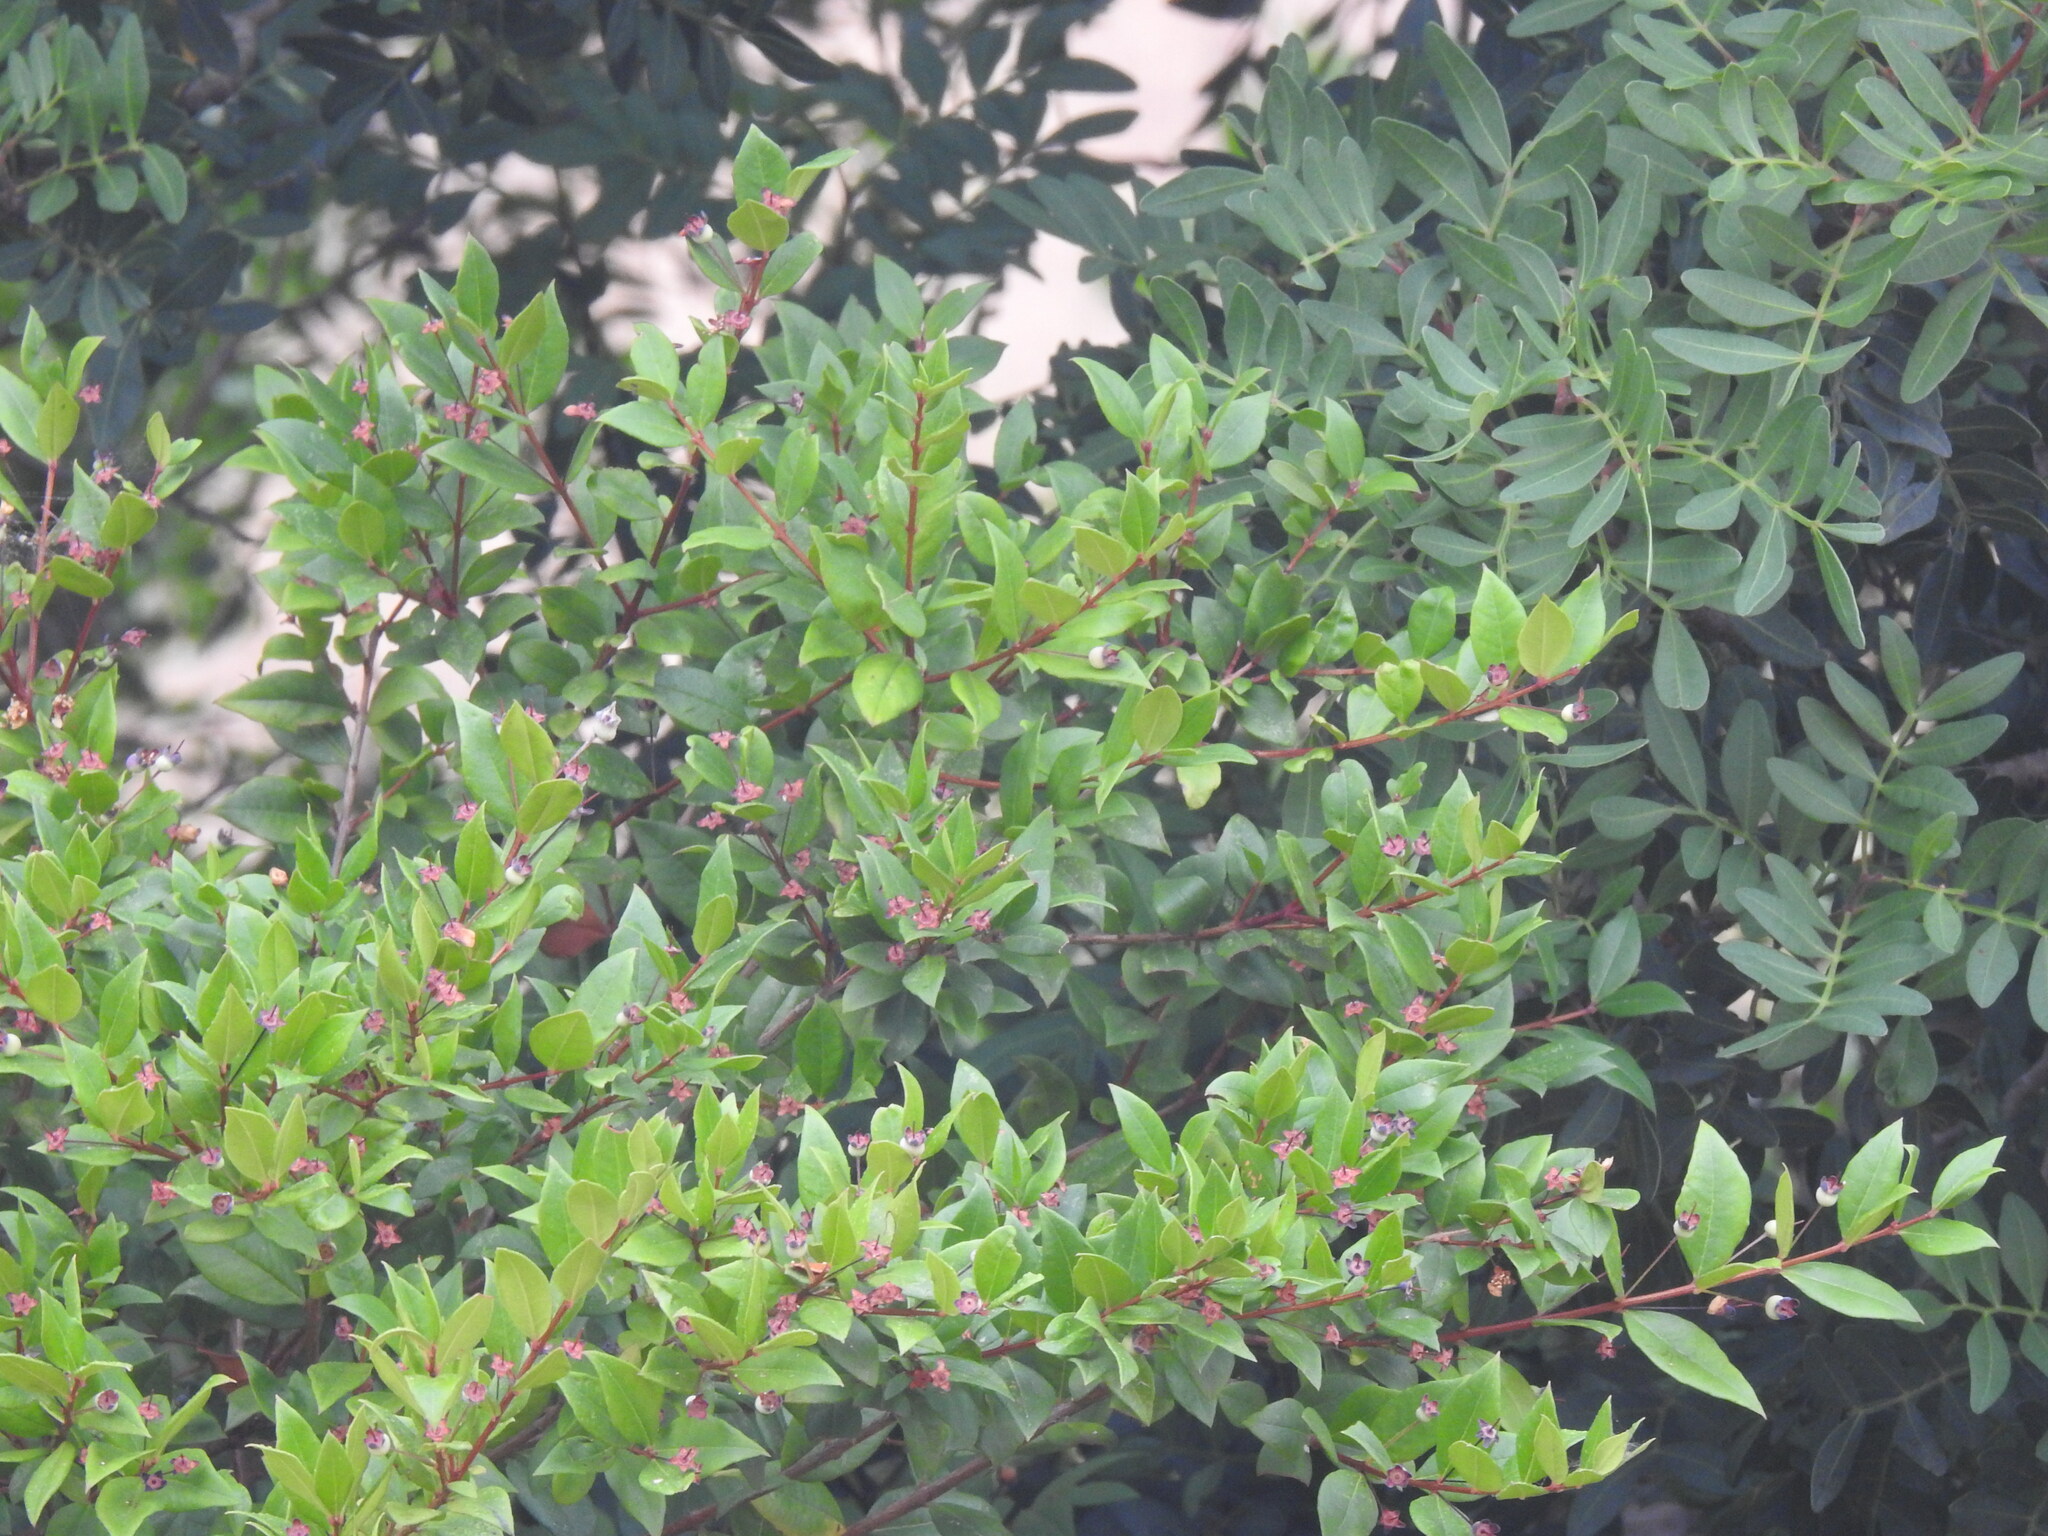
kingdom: Plantae
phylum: Tracheophyta
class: Magnoliopsida
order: Myrtales
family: Myrtaceae
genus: Myrtus
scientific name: Myrtus communis
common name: Myrtle
